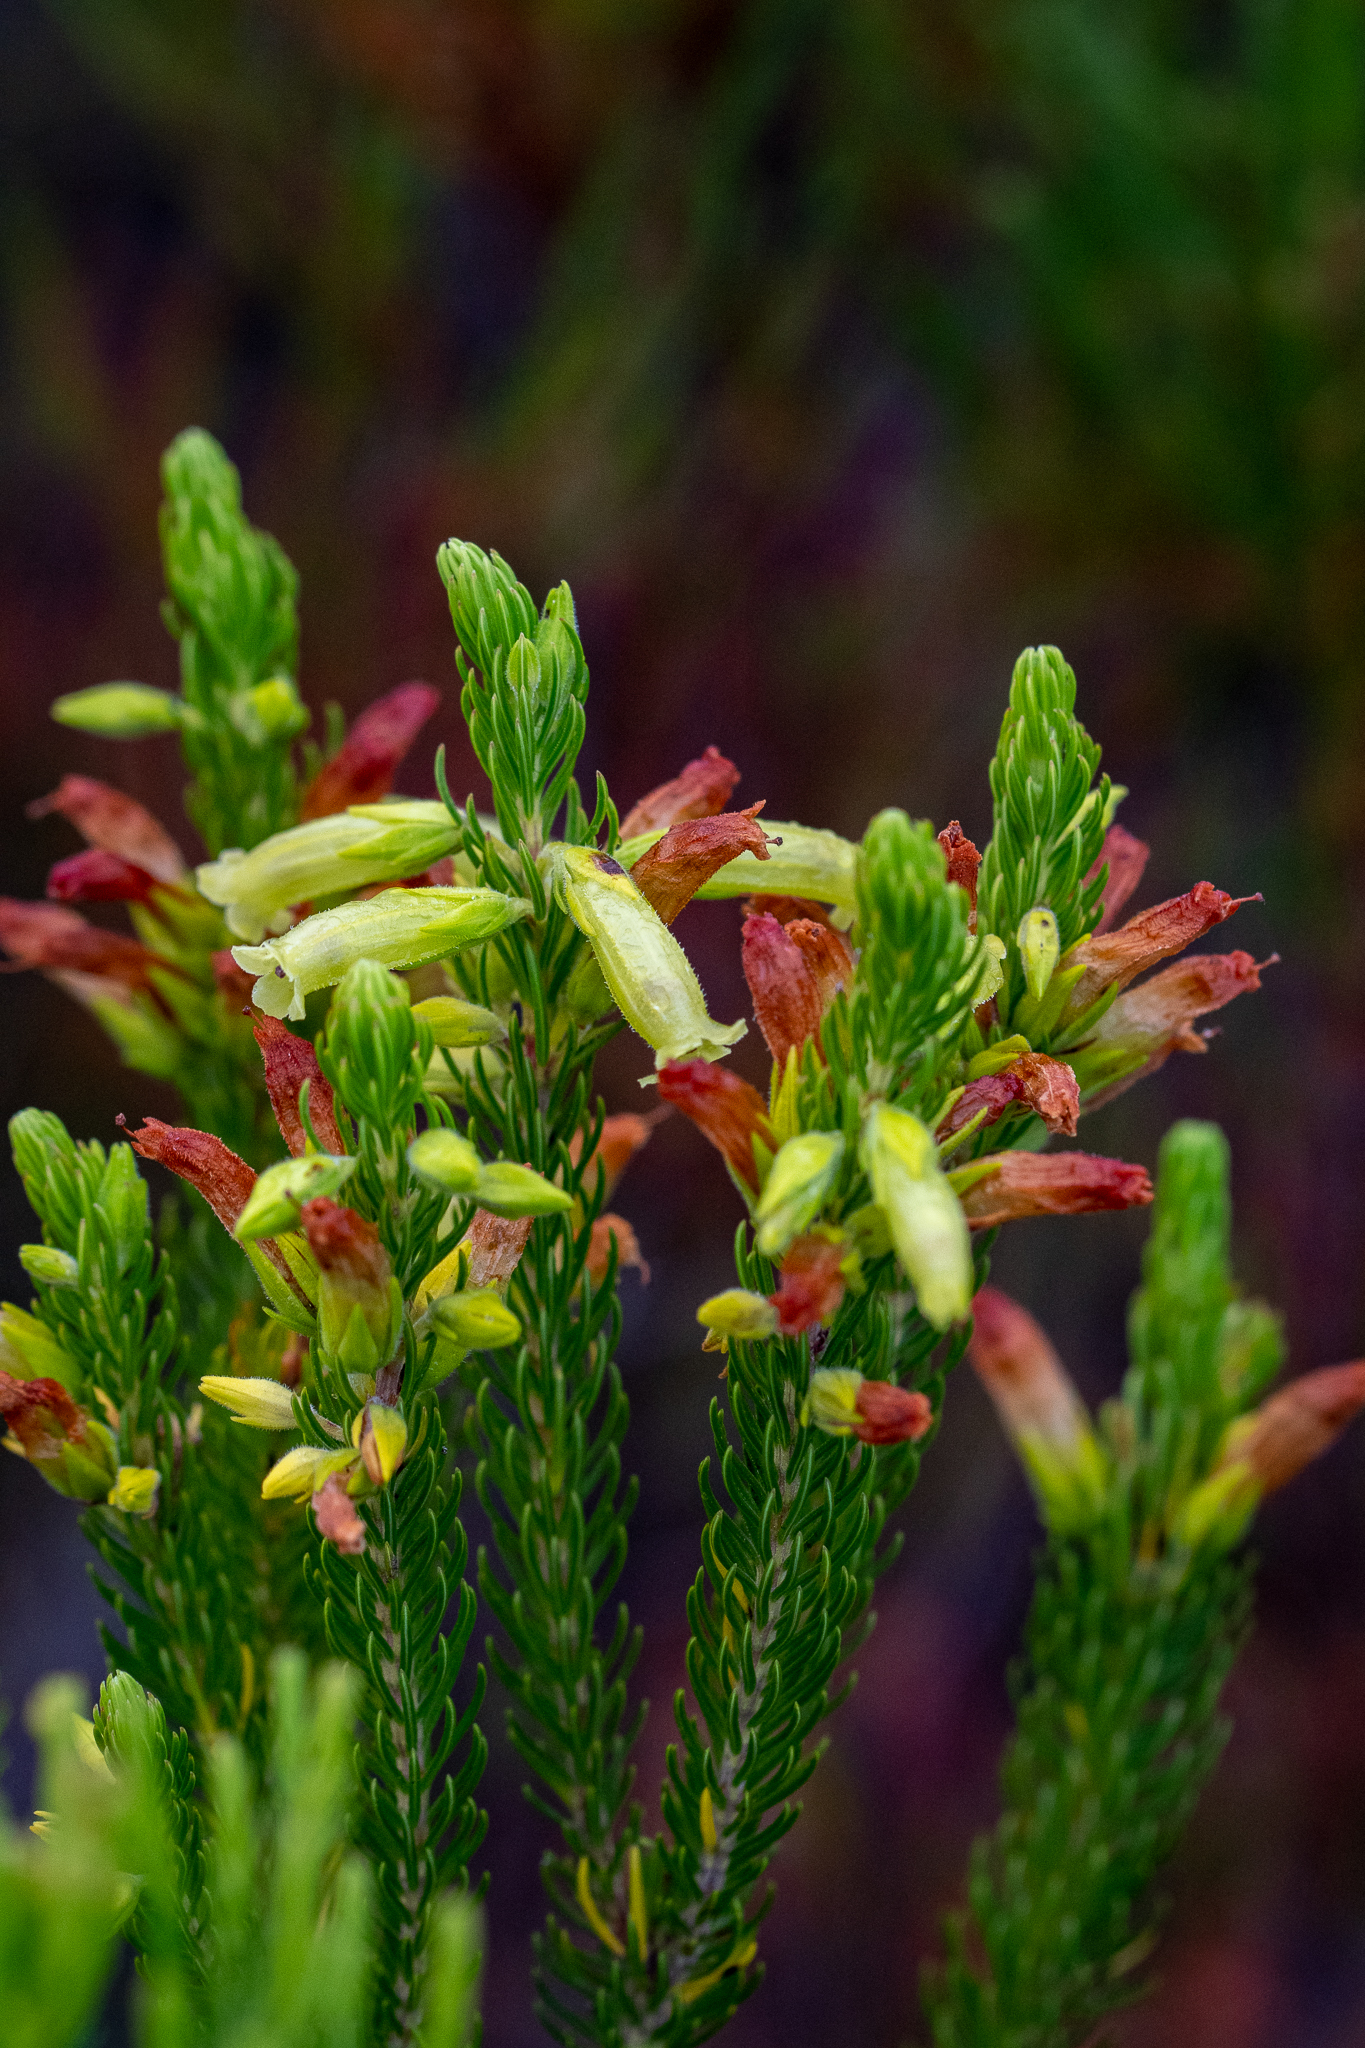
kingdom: Plantae
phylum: Tracheophyta
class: Magnoliopsida
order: Ericales
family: Ericaceae
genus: Erica
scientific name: Erica viscaria
